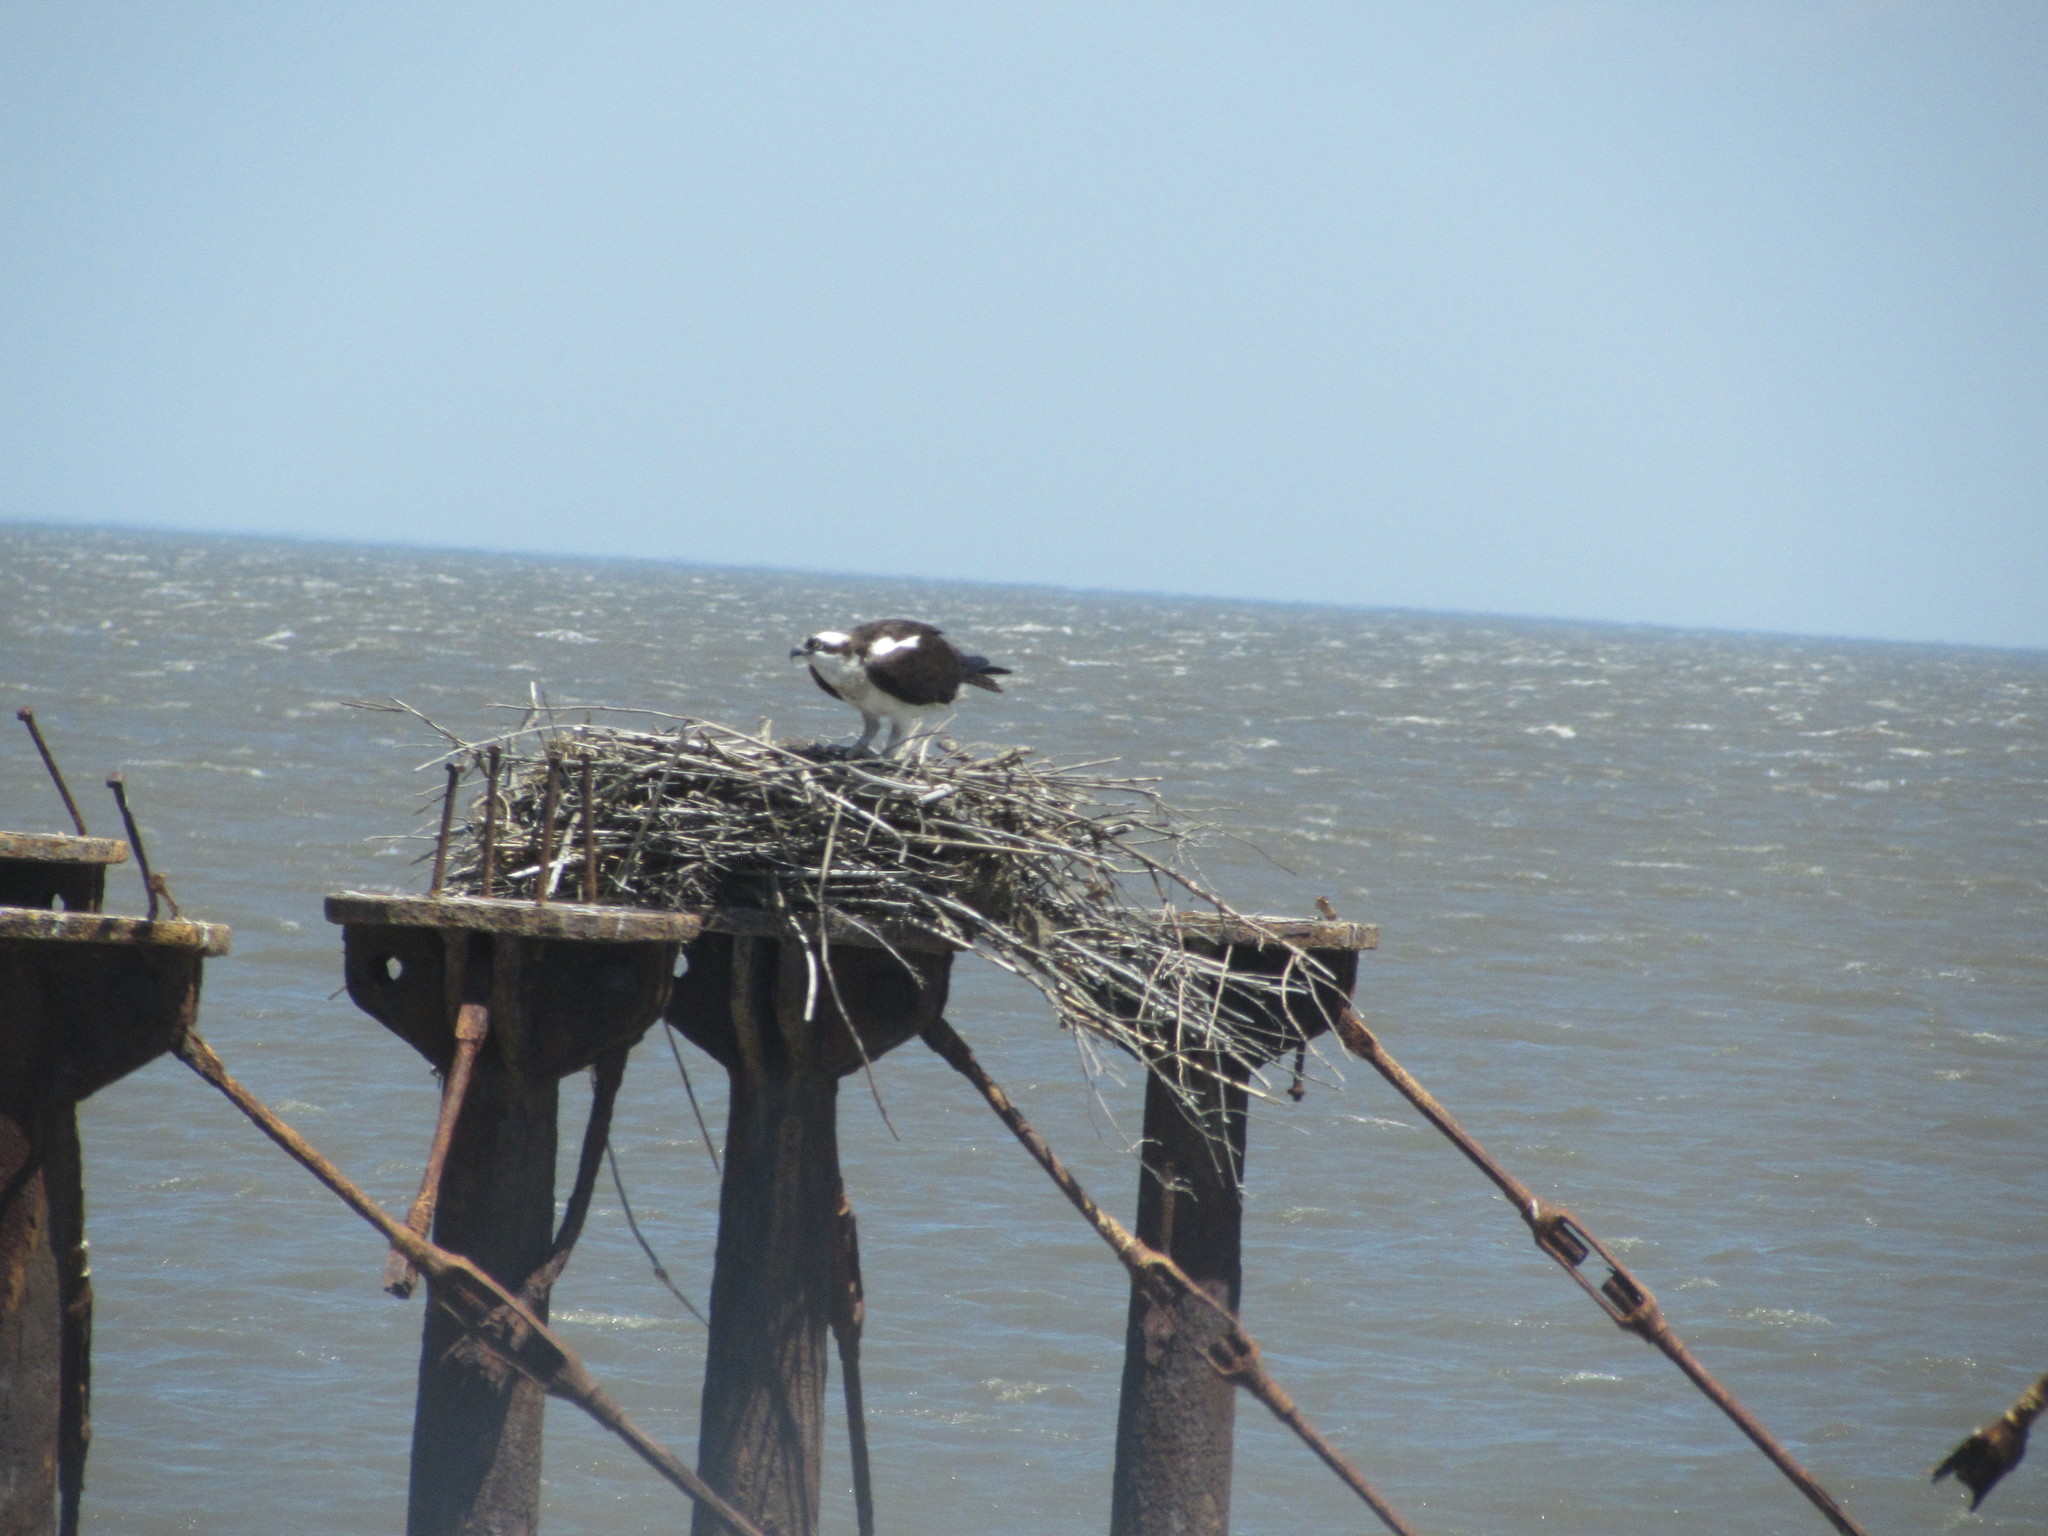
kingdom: Animalia
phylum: Chordata
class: Aves
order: Accipitriformes
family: Pandionidae
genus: Pandion
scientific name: Pandion haliaetus
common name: Osprey
